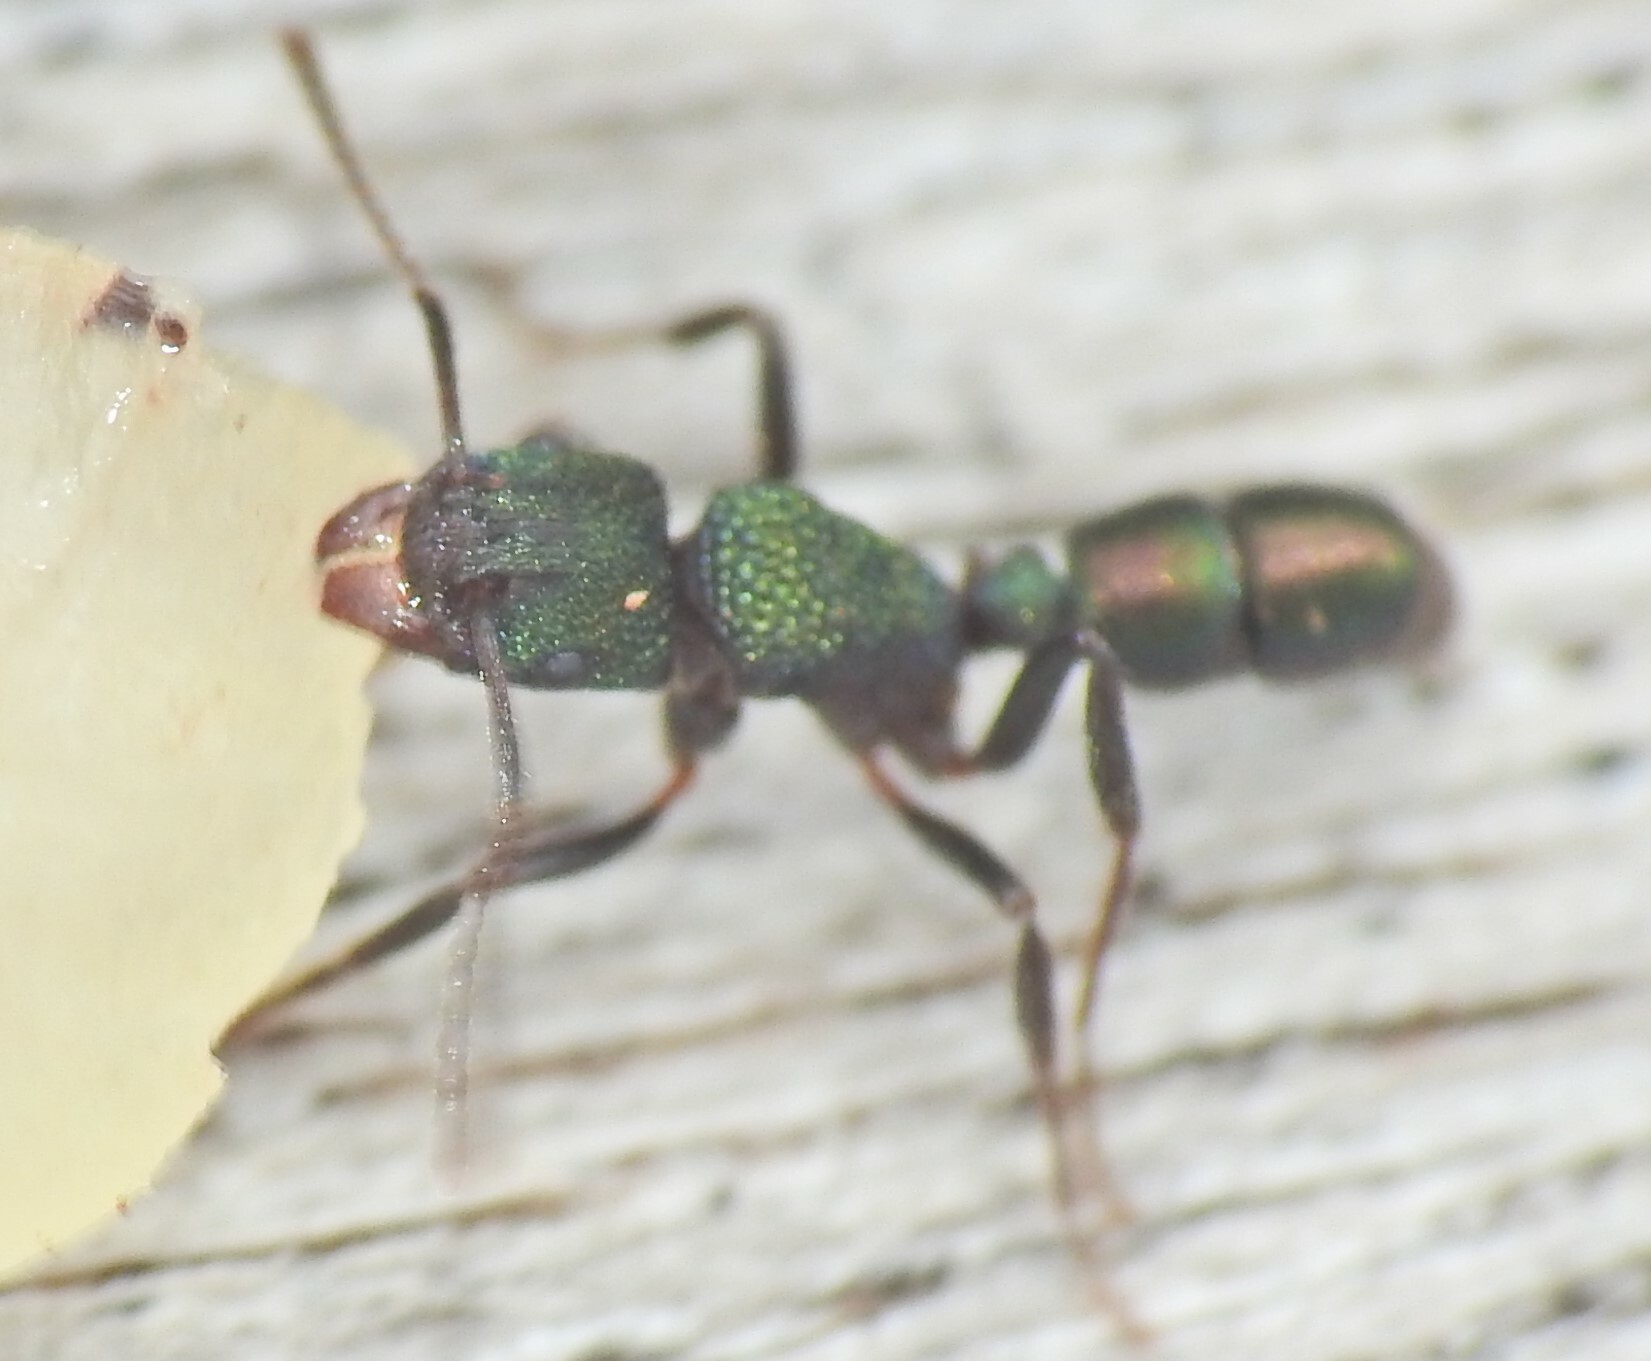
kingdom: Animalia
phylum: Arthropoda
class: Insecta
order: Hymenoptera
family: Formicidae
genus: Rhytidoponera
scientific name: Rhytidoponera metallica
